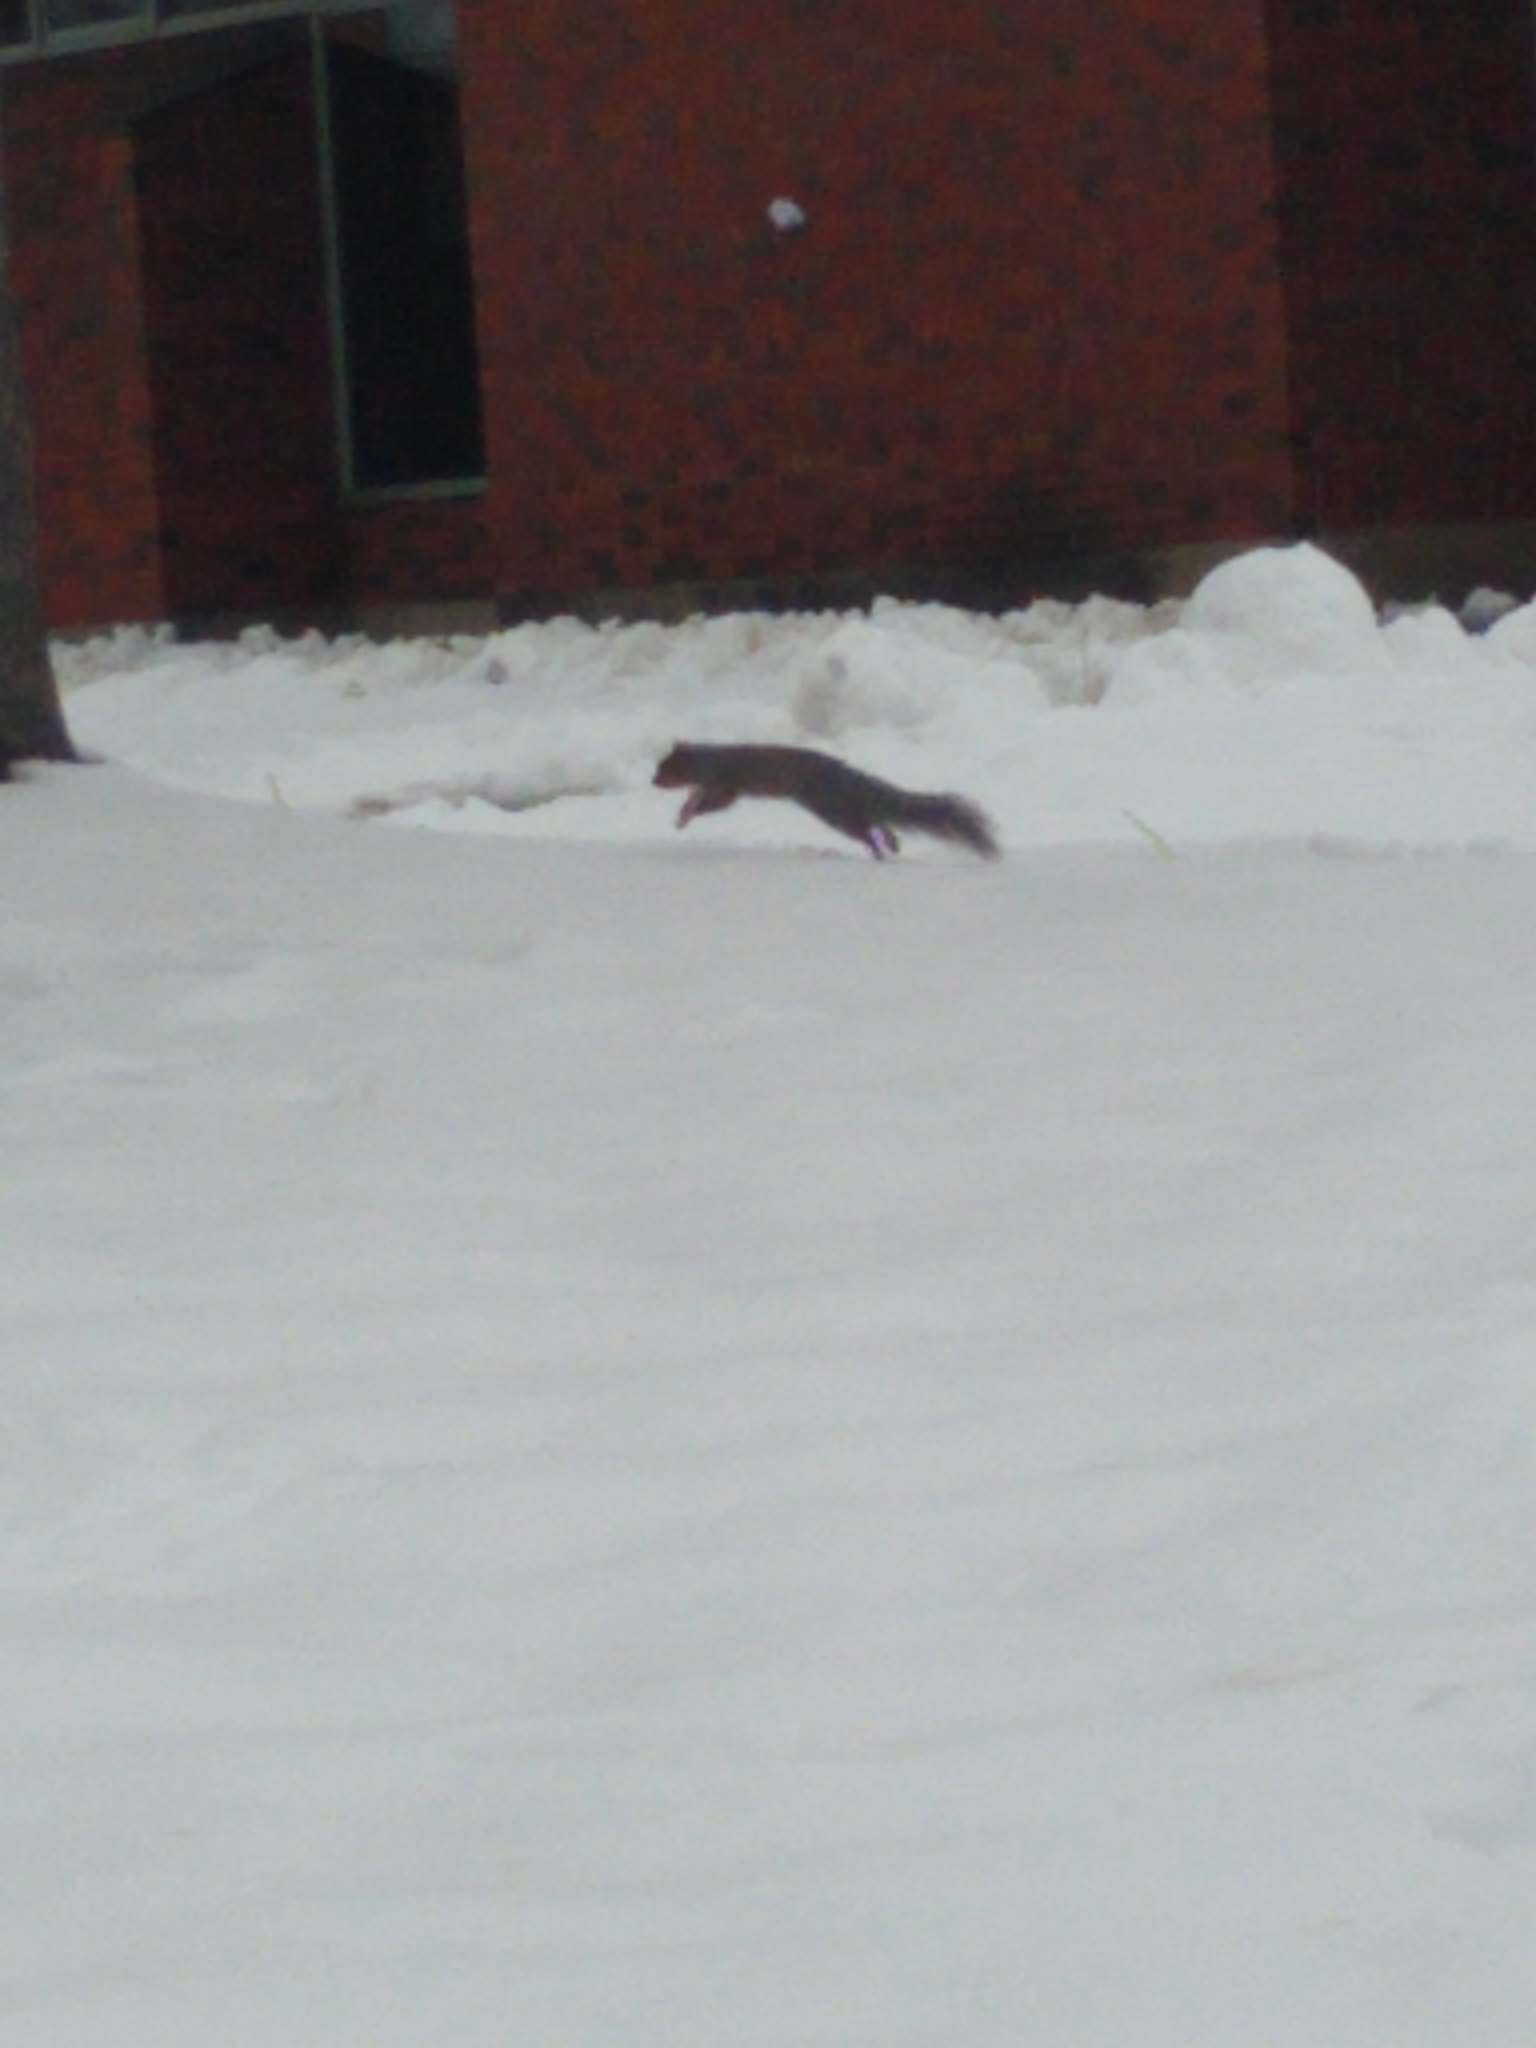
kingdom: Animalia
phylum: Chordata
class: Mammalia
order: Rodentia
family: Sciuridae
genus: Sciurus
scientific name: Sciurus carolinensis
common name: Eastern gray squirrel
